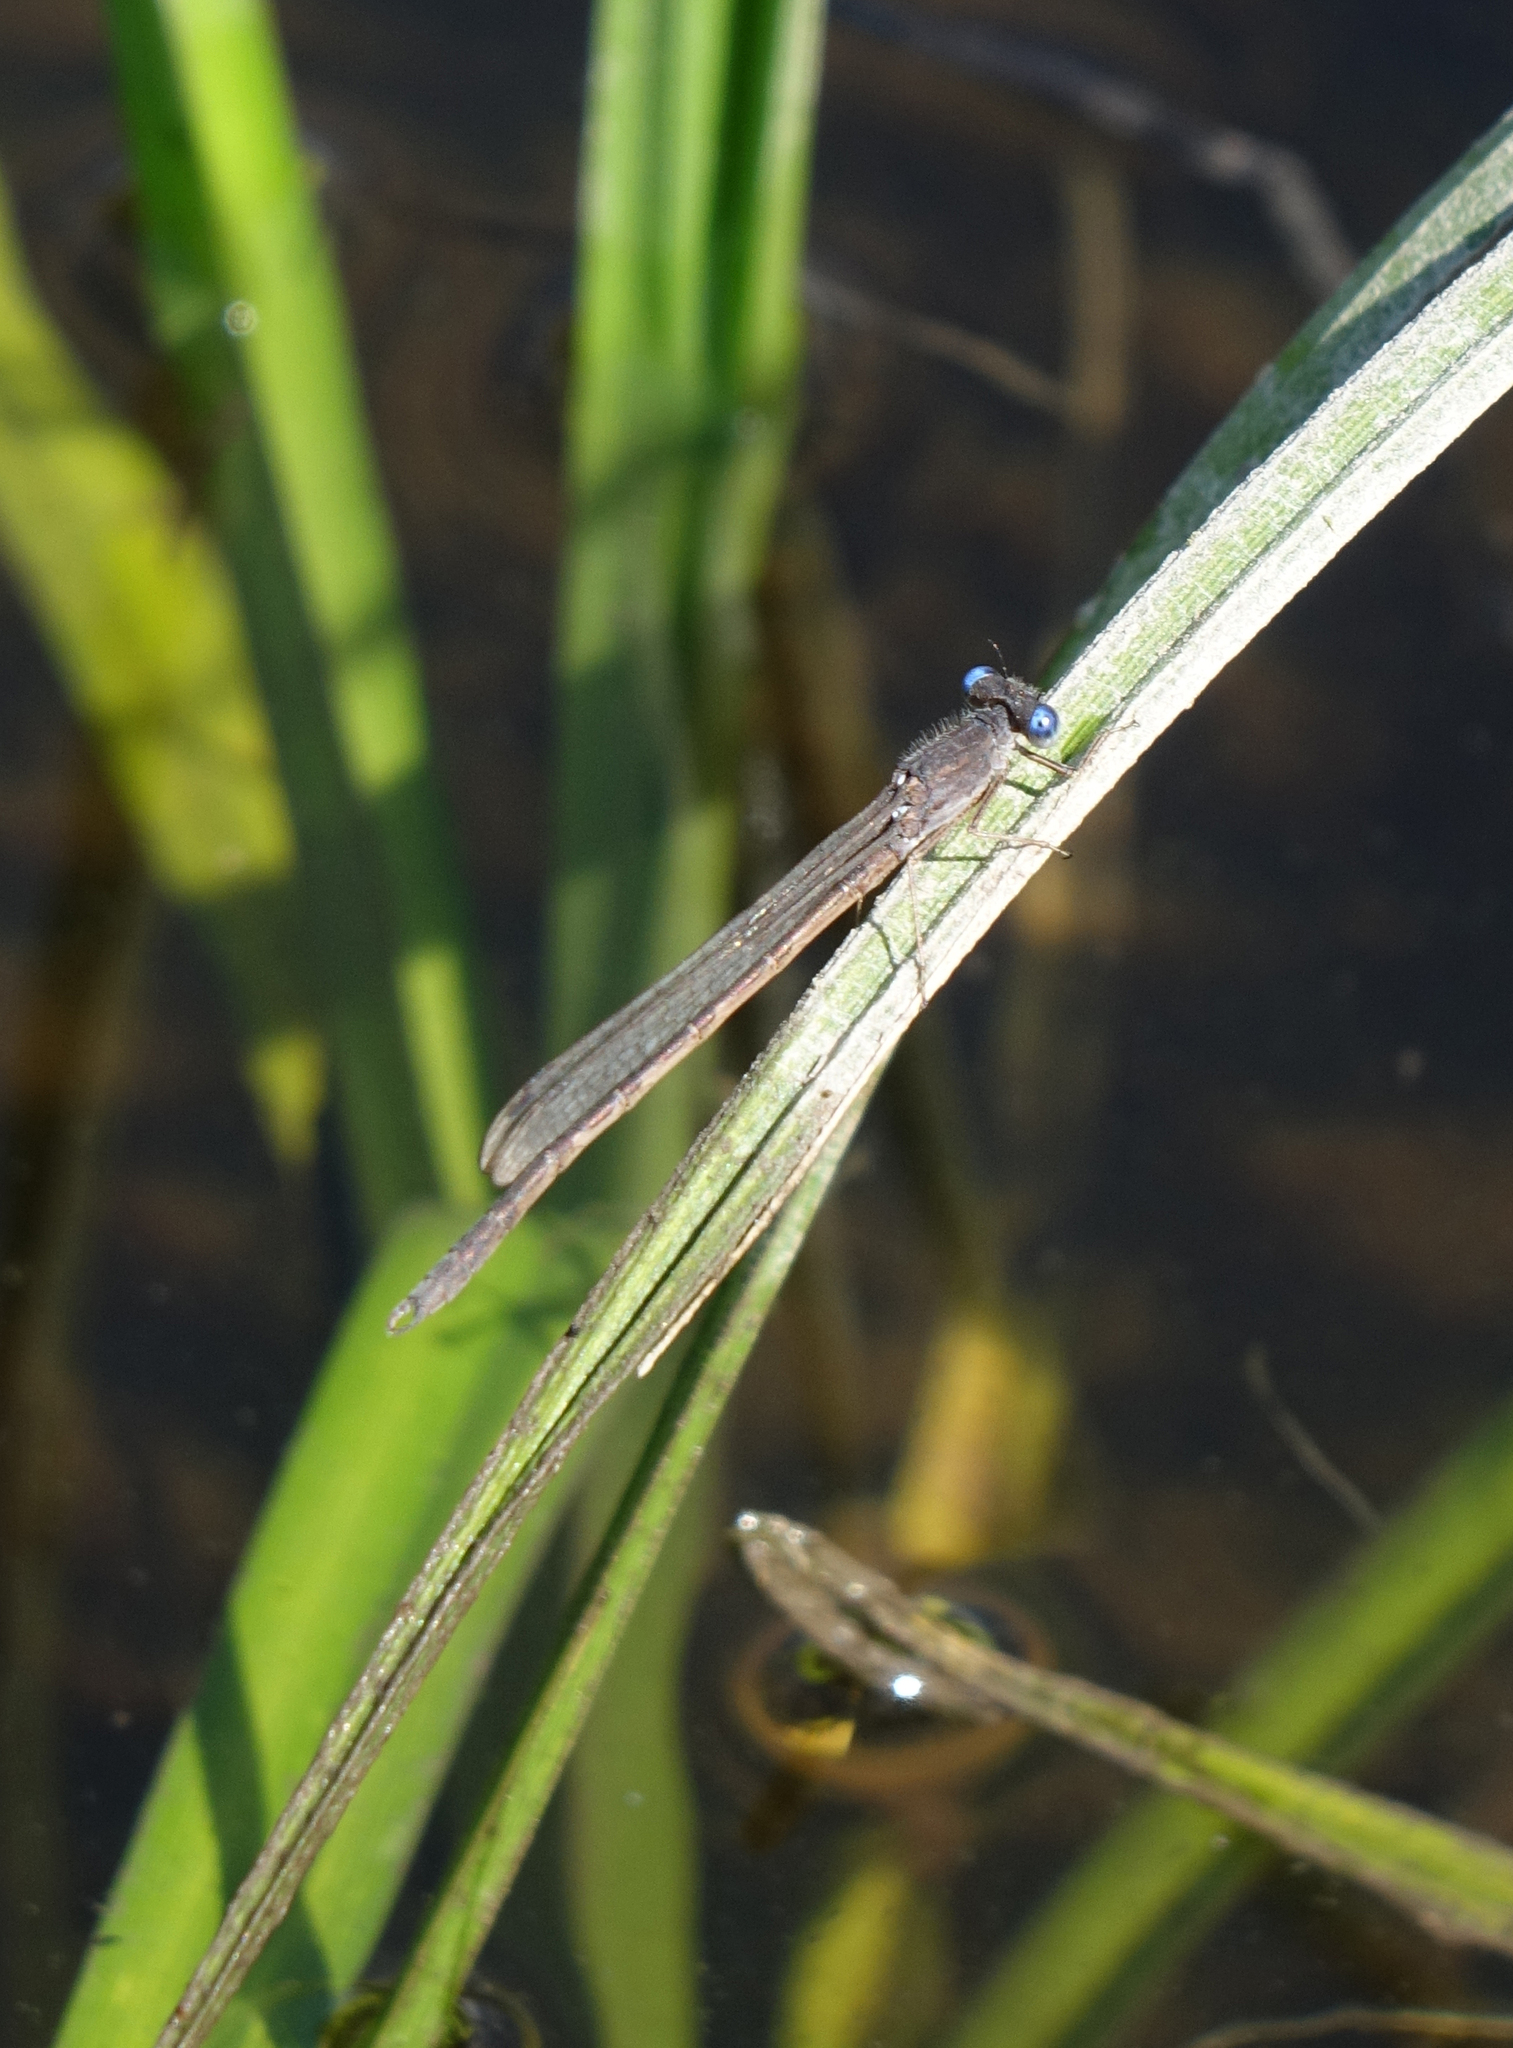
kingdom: Animalia
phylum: Arthropoda
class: Insecta
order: Odonata
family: Lestidae
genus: Sympecma
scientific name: Sympecma paedisca
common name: Siberian winter damsel
